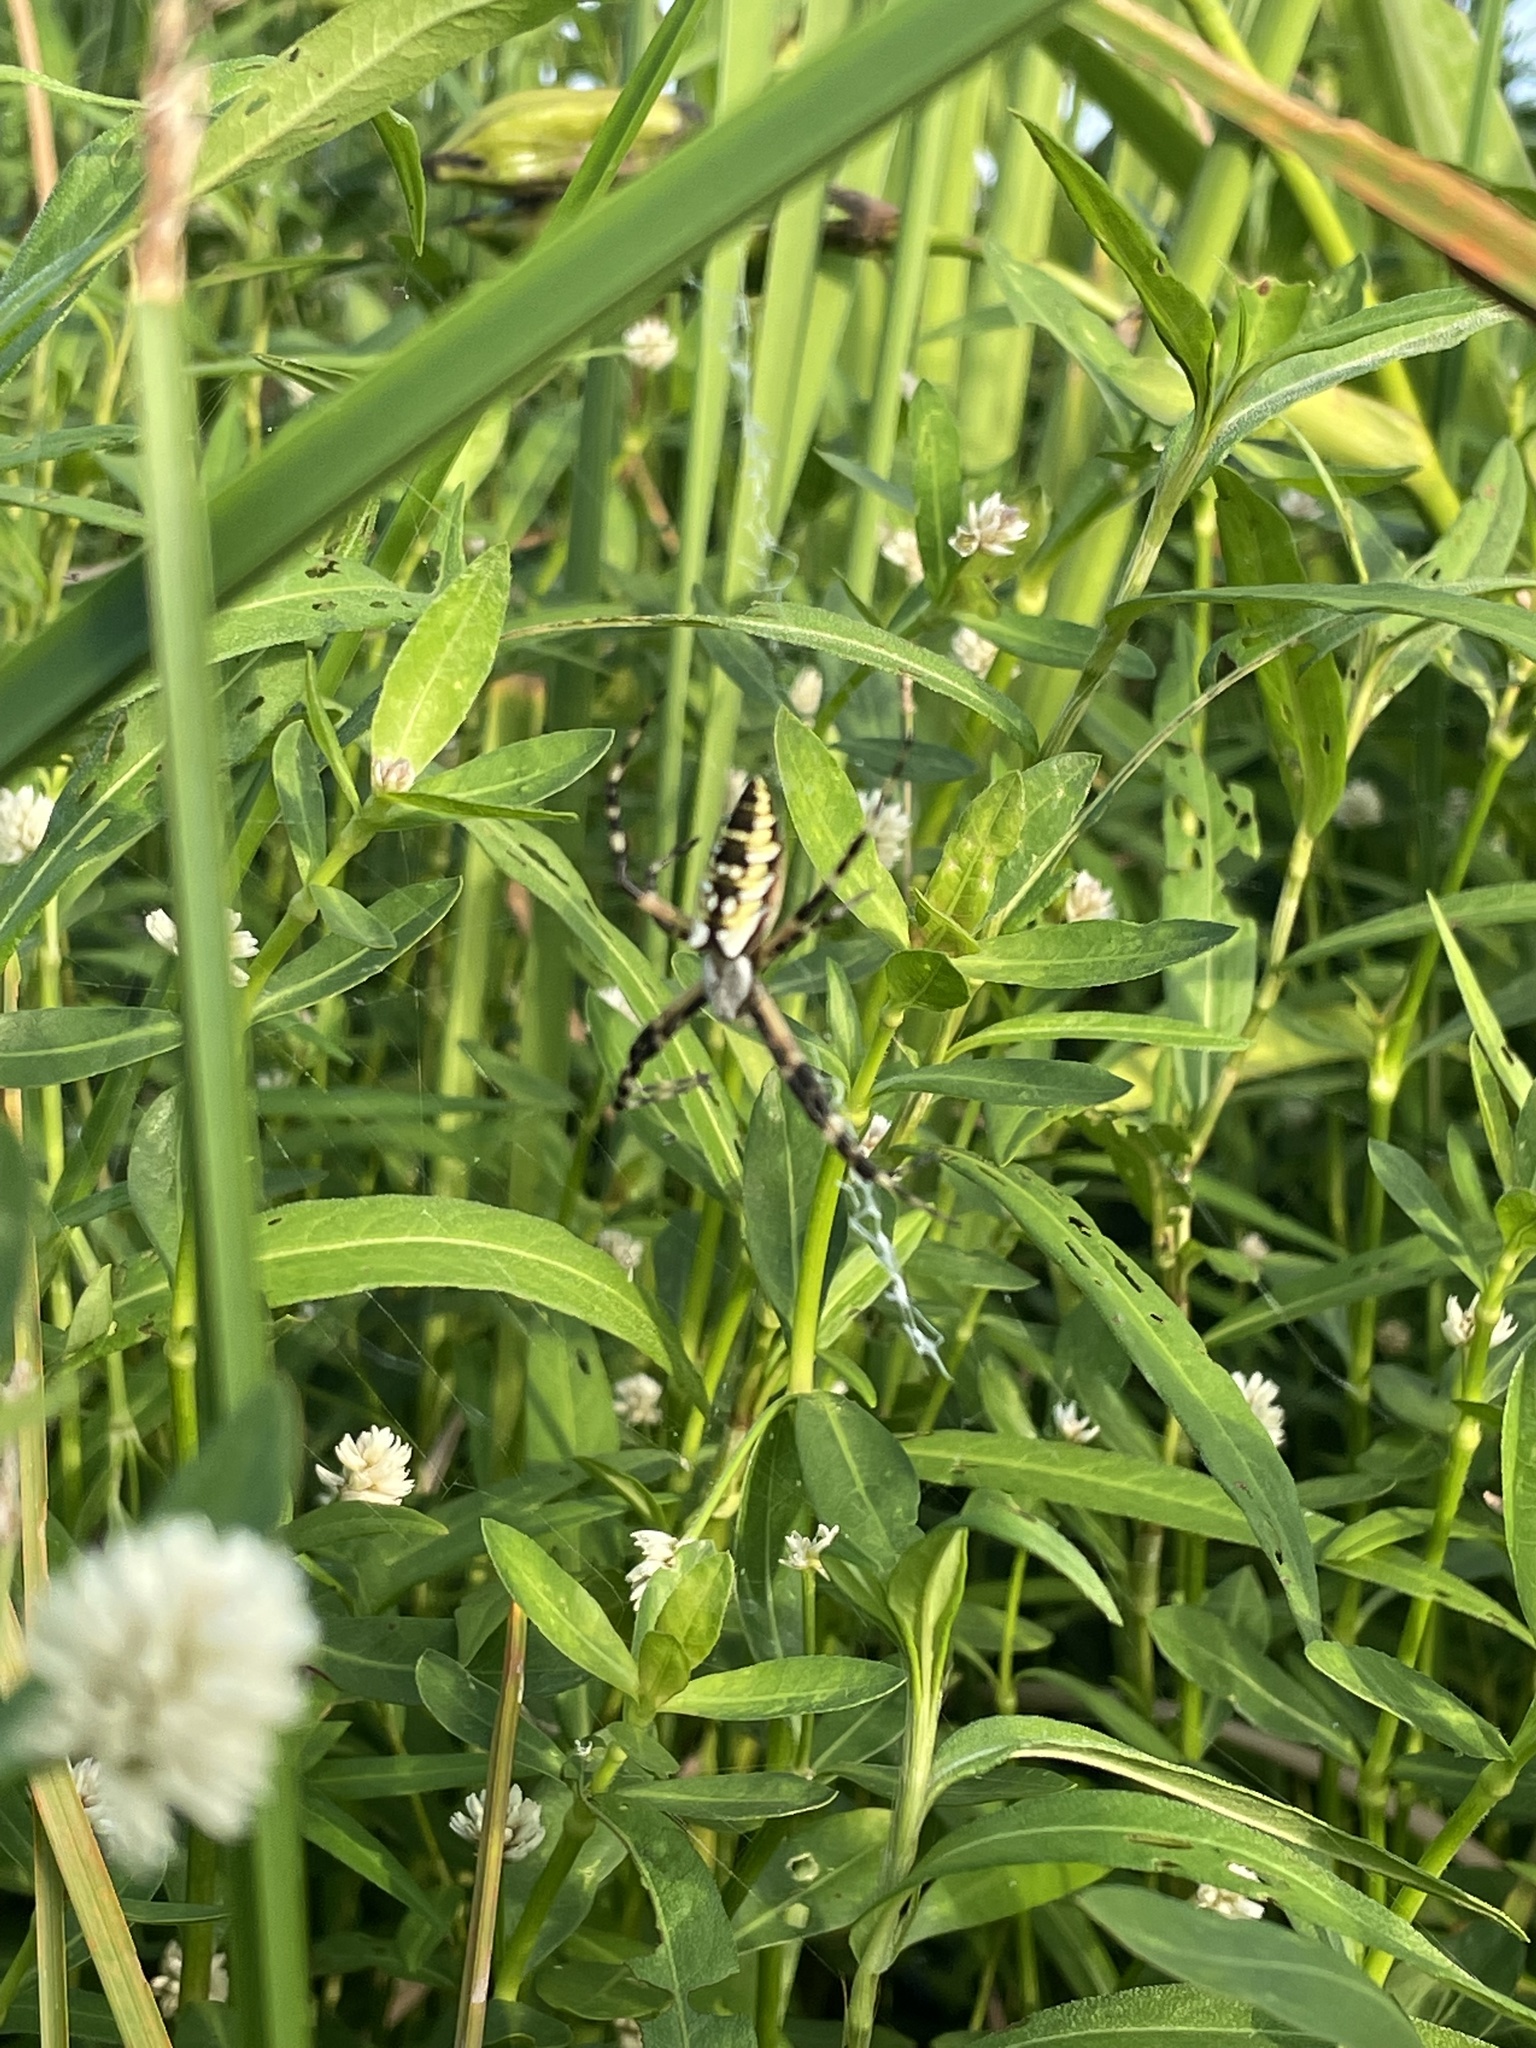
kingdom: Animalia
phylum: Arthropoda
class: Arachnida
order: Araneae
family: Araneidae
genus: Argiope
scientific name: Argiope aurantia
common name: Orb weavers
